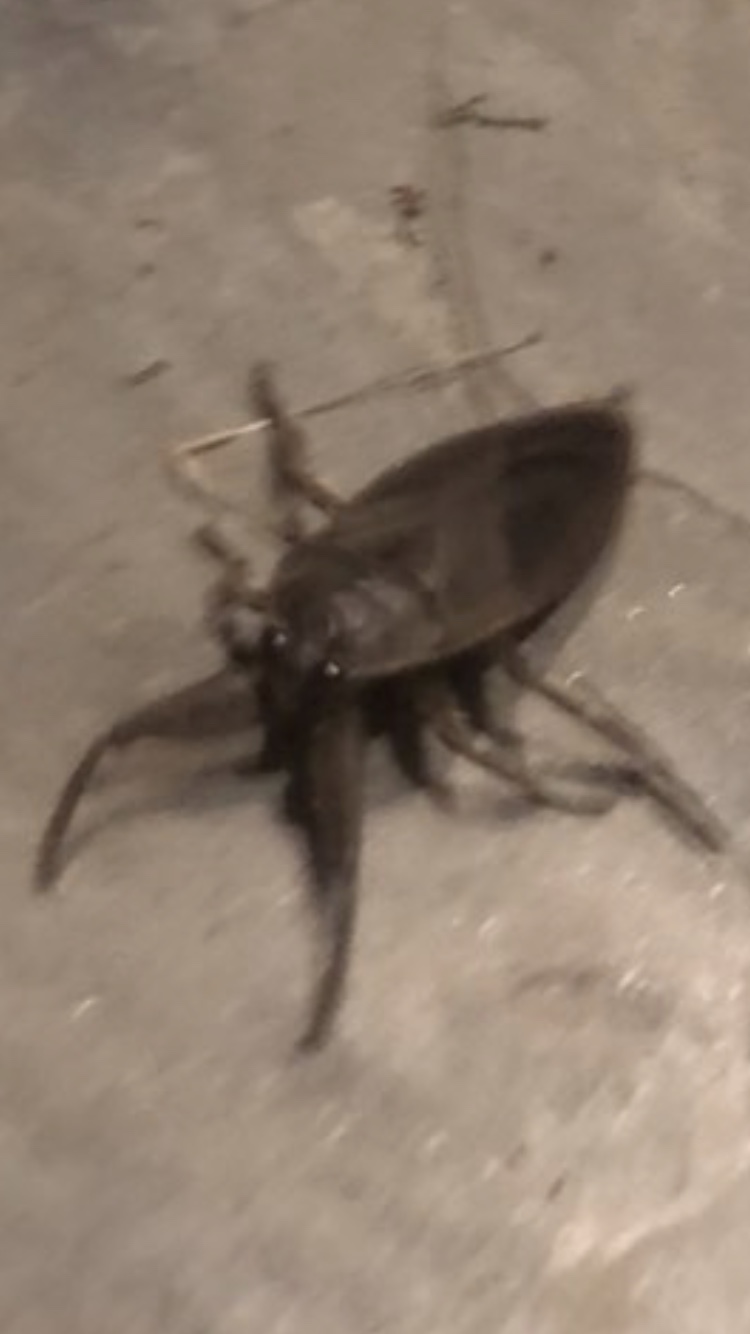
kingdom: Animalia
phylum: Arthropoda
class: Insecta
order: Hemiptera
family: Belostomatidae
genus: Lethocerus
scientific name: Lethocerus americanus
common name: Giant water bug
